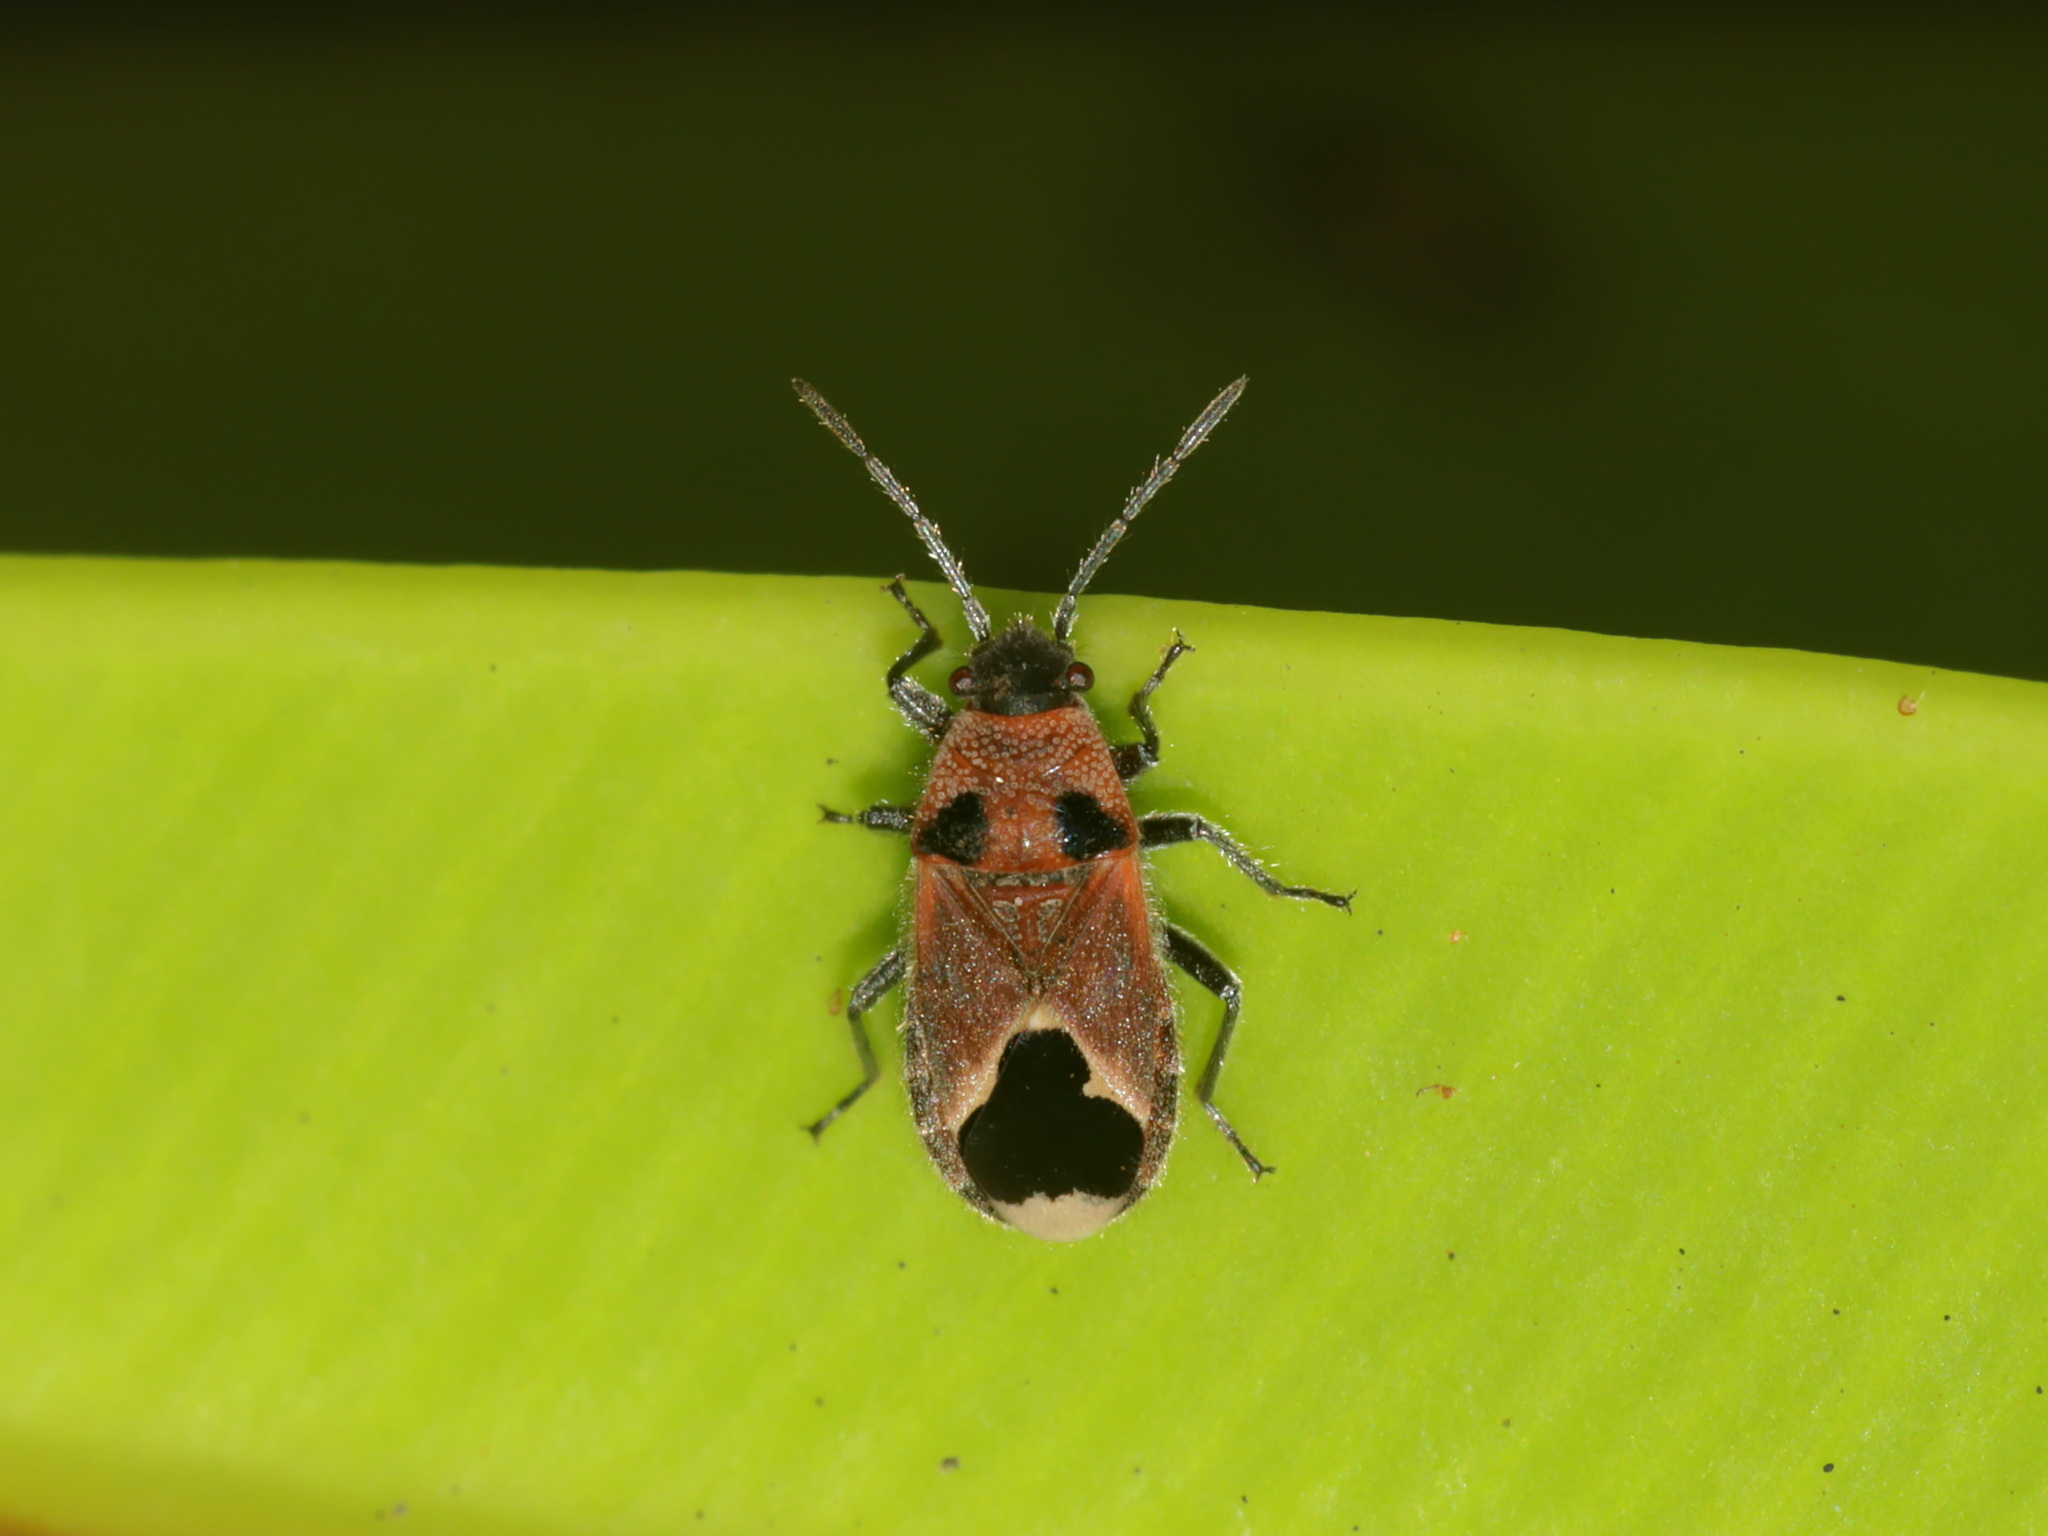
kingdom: Animalia
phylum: Arthropoda
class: Insecta
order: Hemiptera
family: Lygaeidae
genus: Melanotelus
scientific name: Melanotelus bipunctatus
